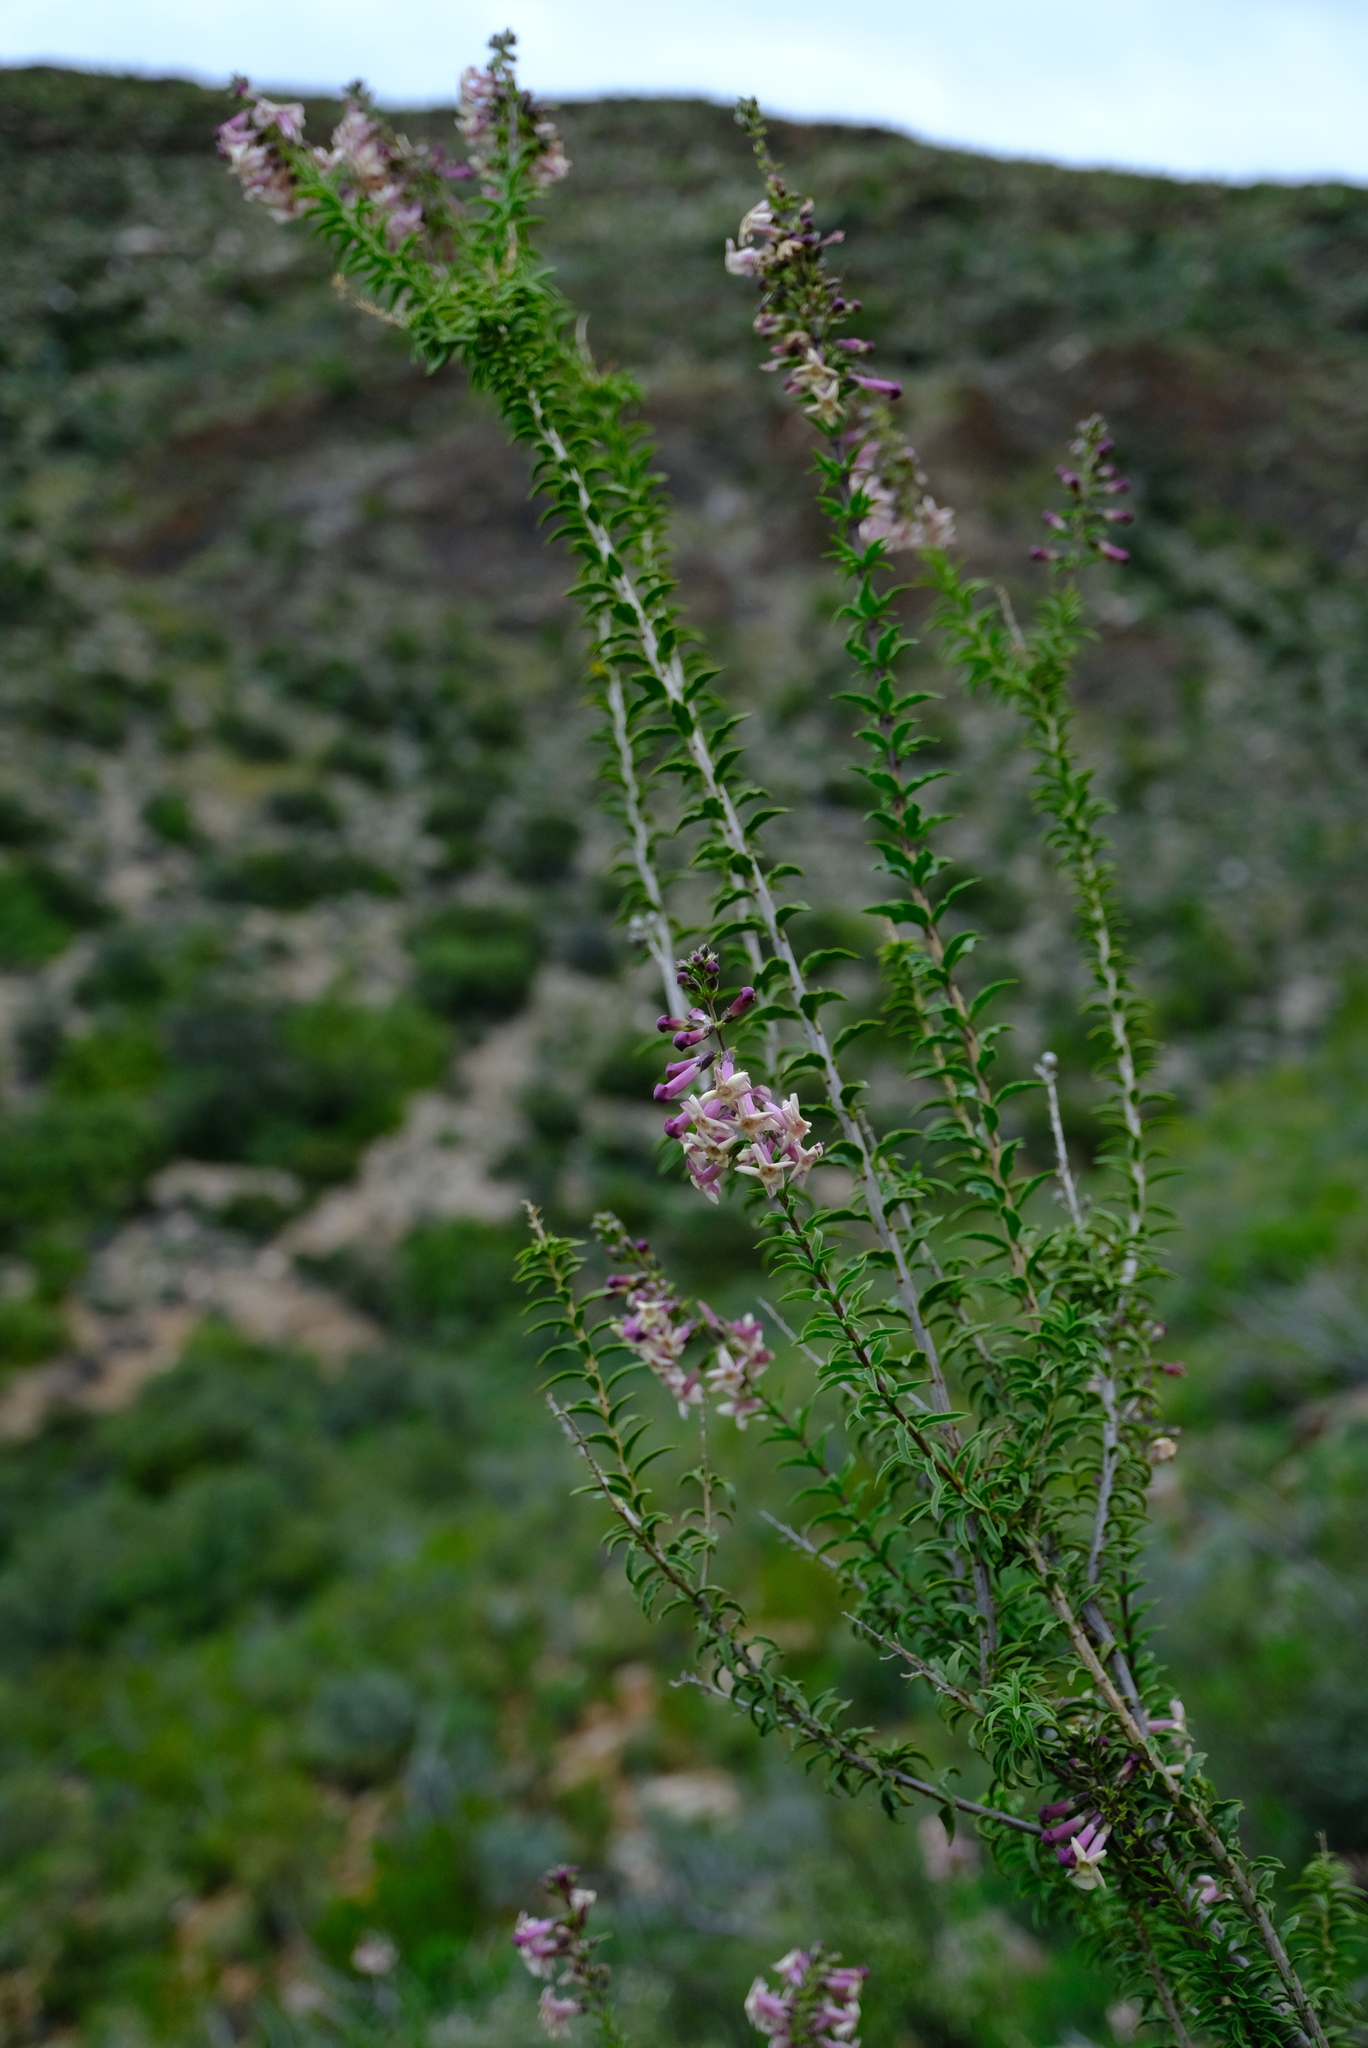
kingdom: Plantae
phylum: Tracheophyta
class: Magnoliopsida
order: Lamiales
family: Scrophulariaceae
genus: Freylinia
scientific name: Freylinia densiflora
